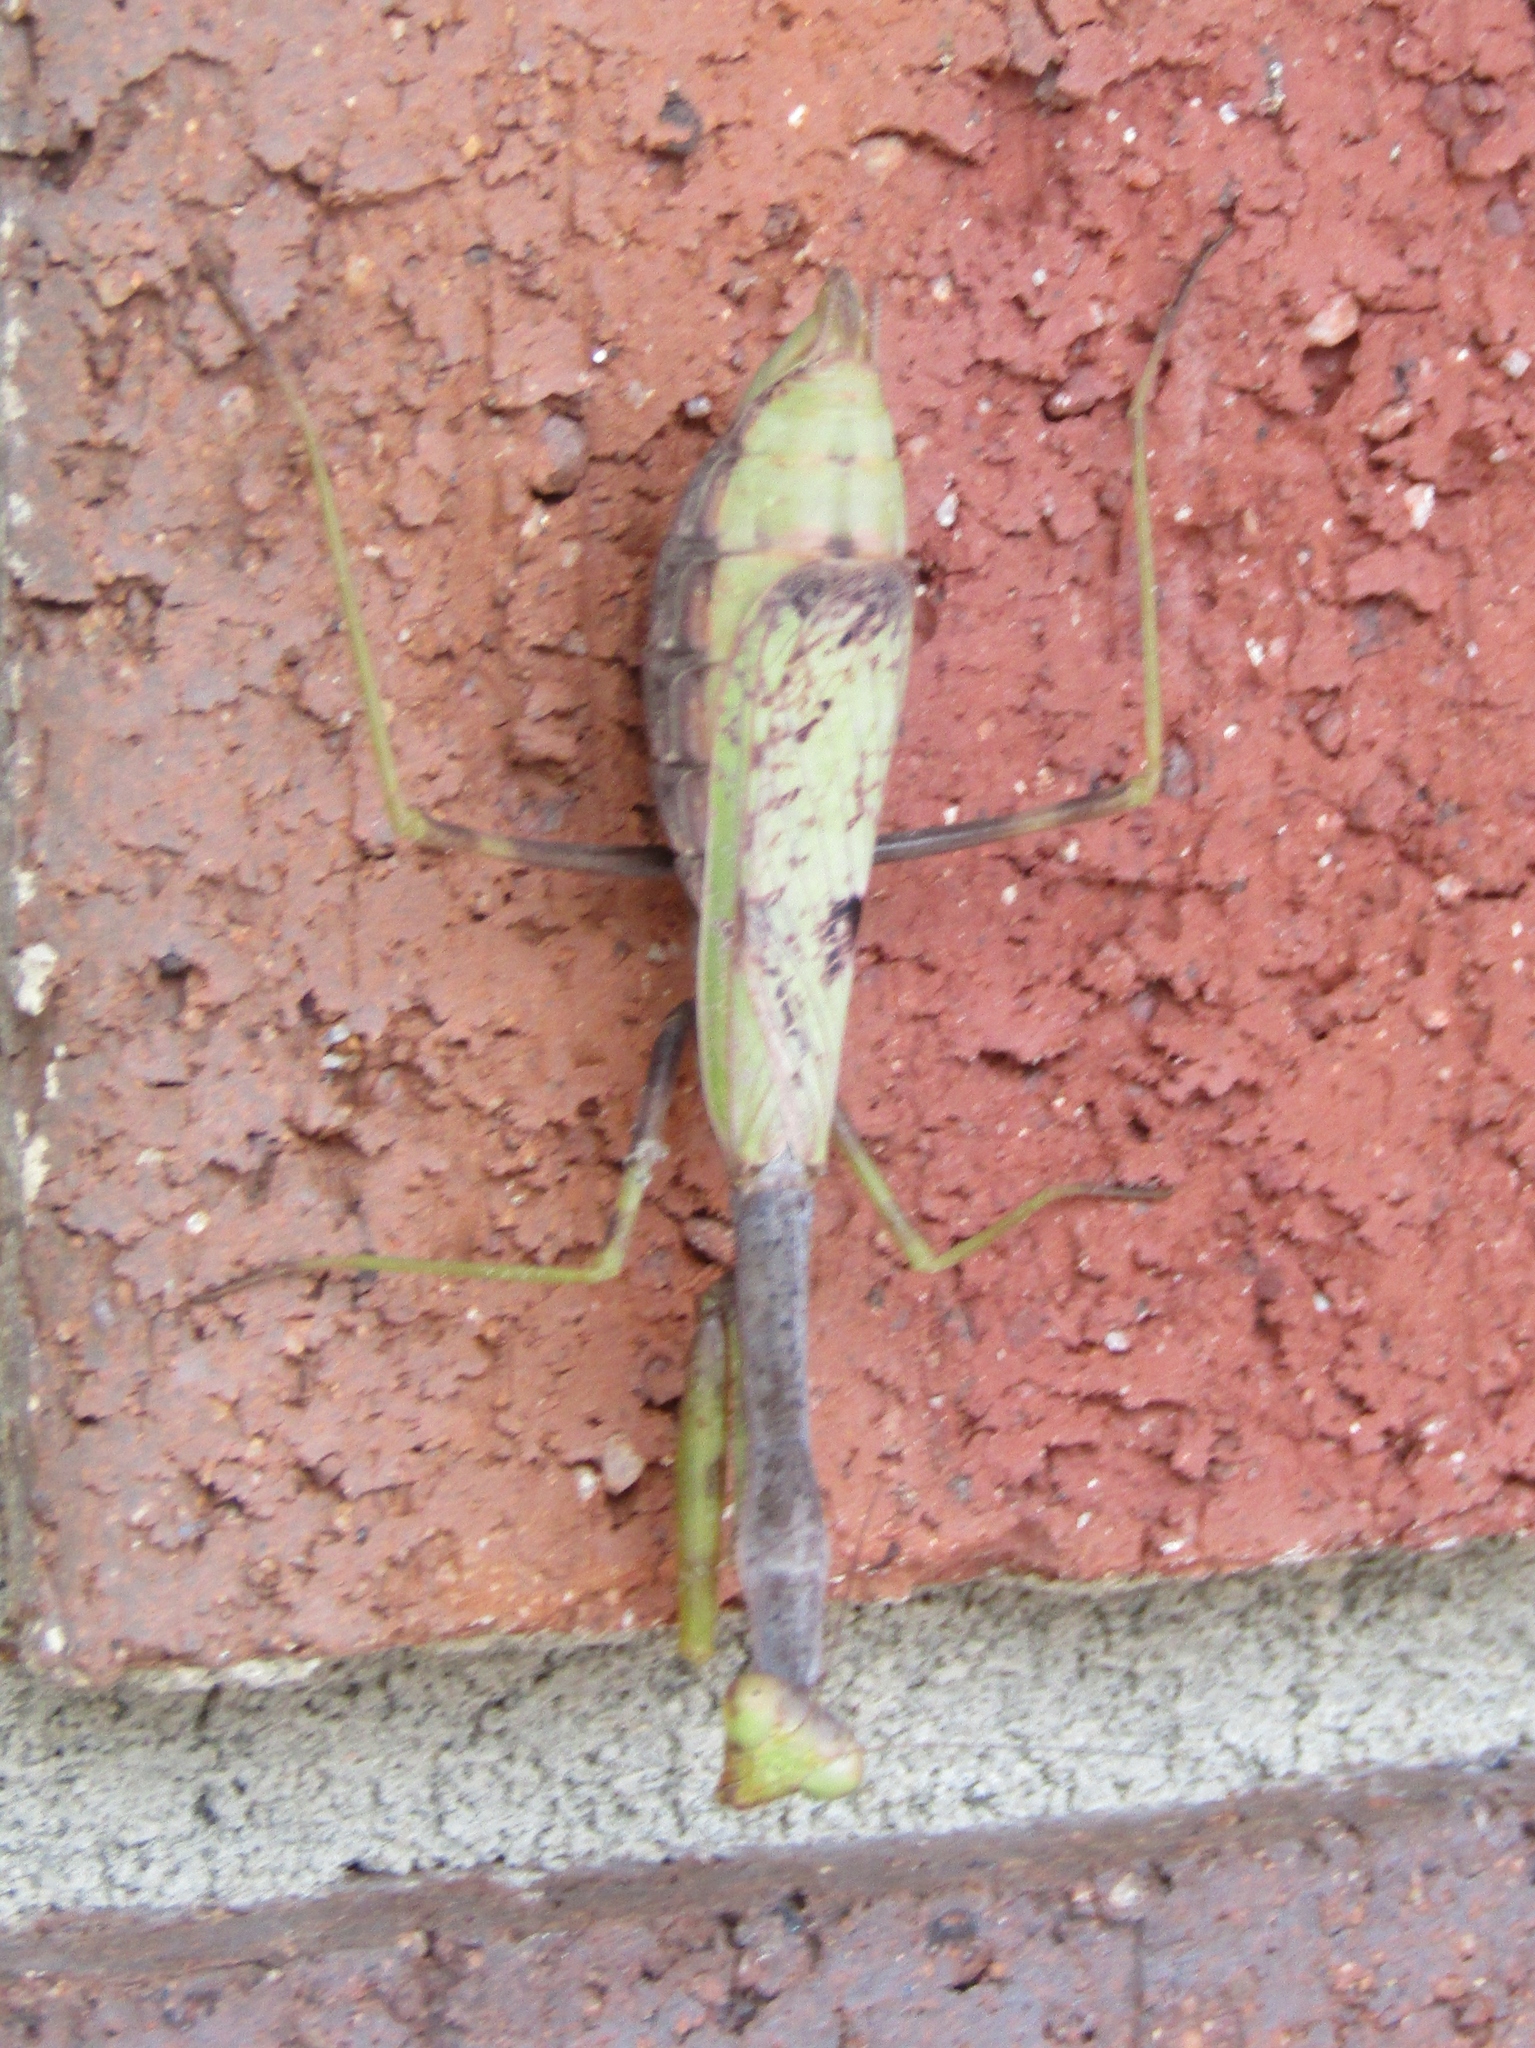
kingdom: Animalia
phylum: Arthropoda
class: Insecta
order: Mantodea
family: Mantidae
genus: Stagmomantis
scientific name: Stagmomantis carolina
